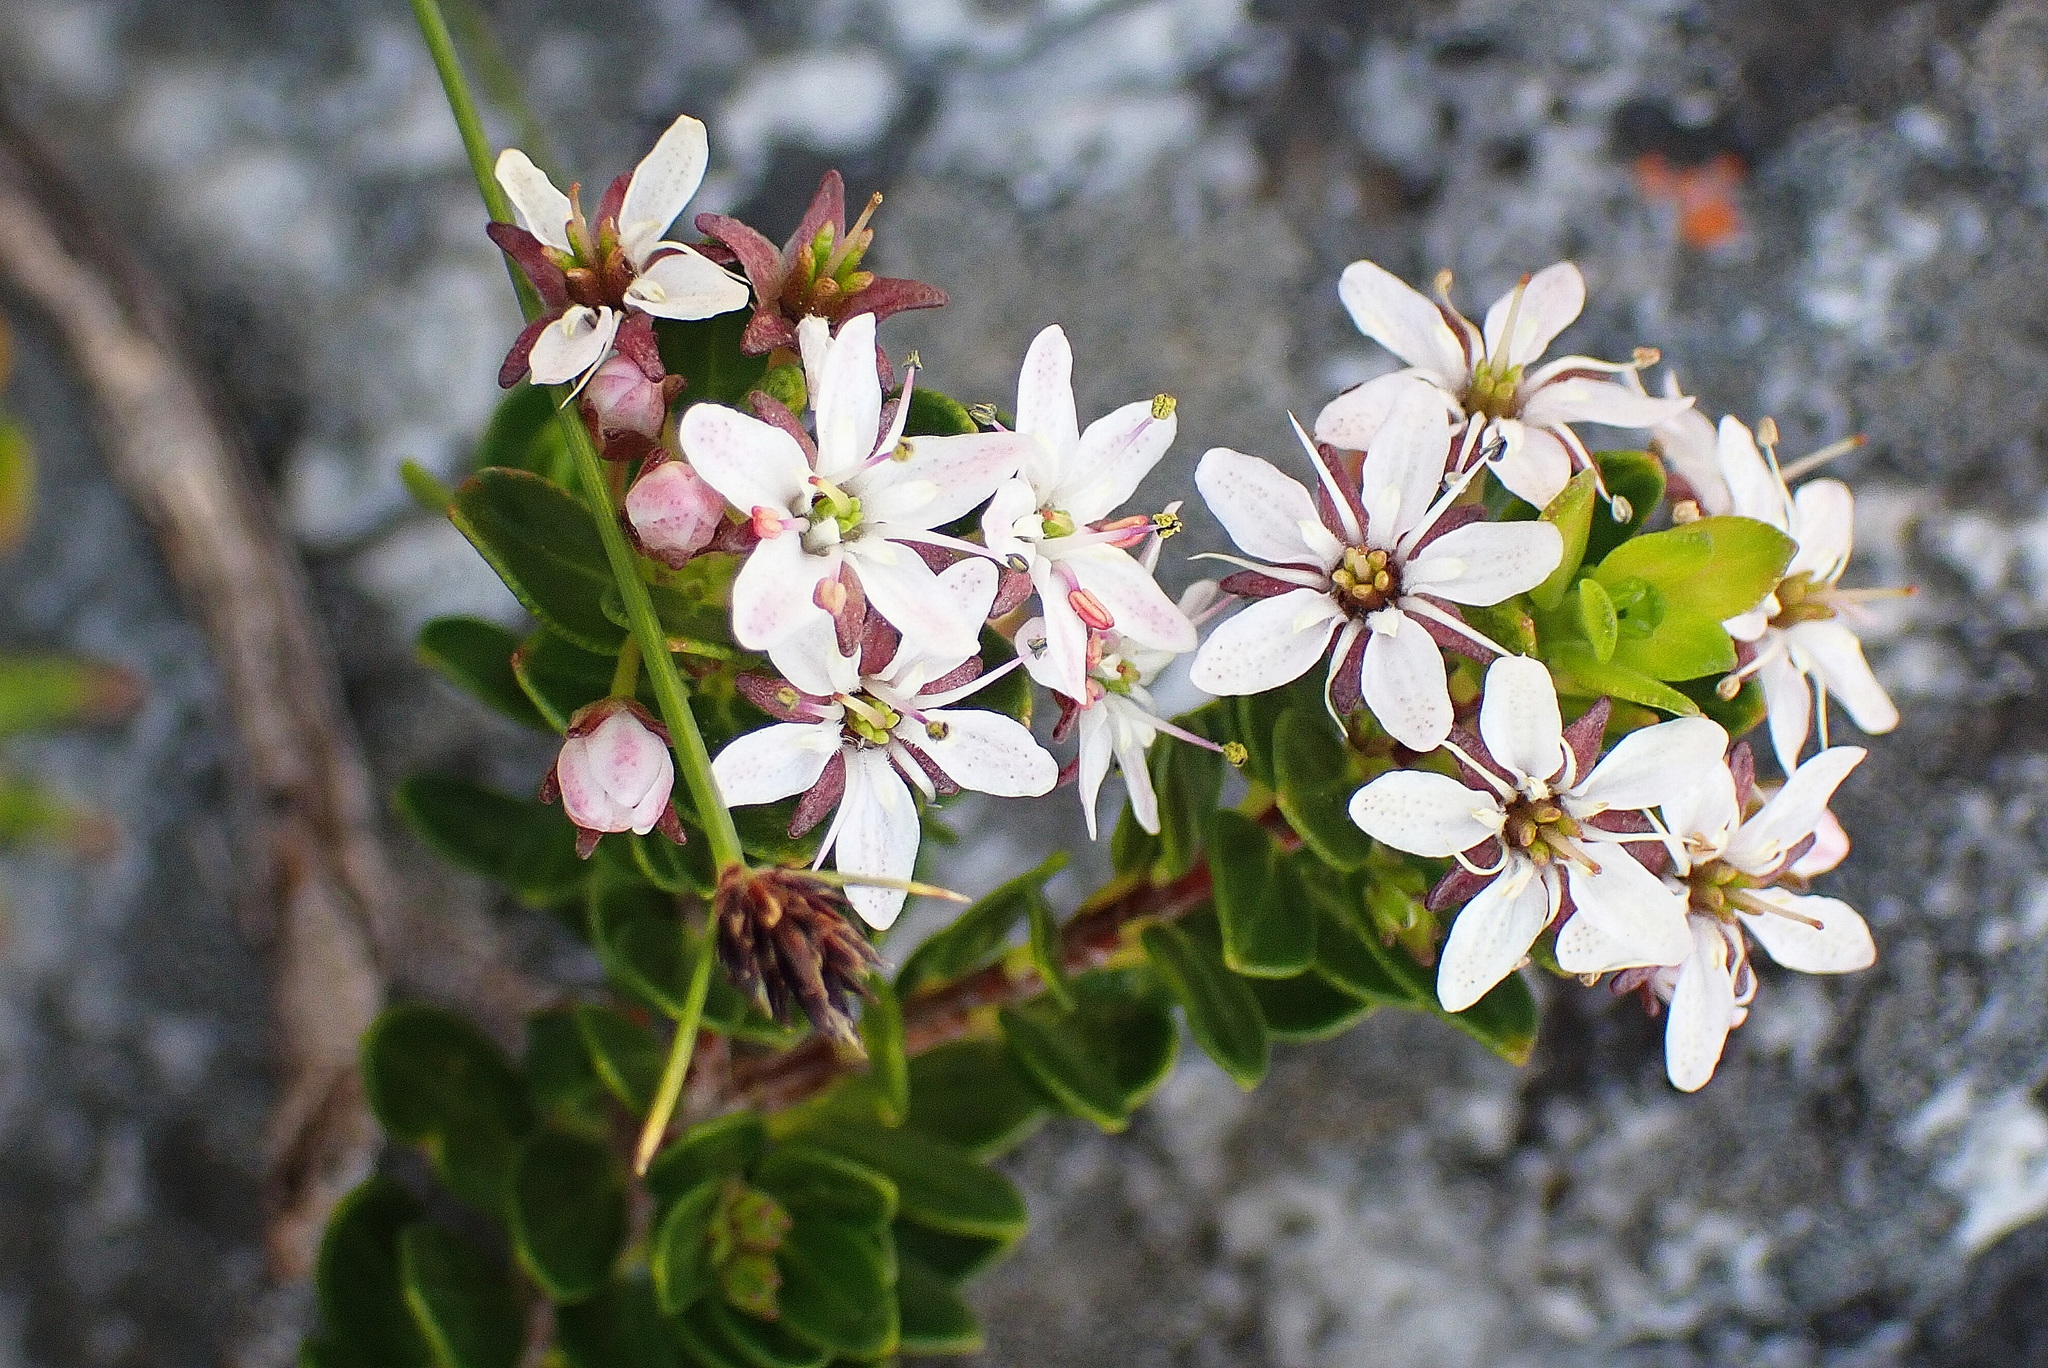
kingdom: Plantae
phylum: Tracheophyta
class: Magnoliopsida
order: Sapindales
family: Rutaceae
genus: Agathosma
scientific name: Agathosma ovata
